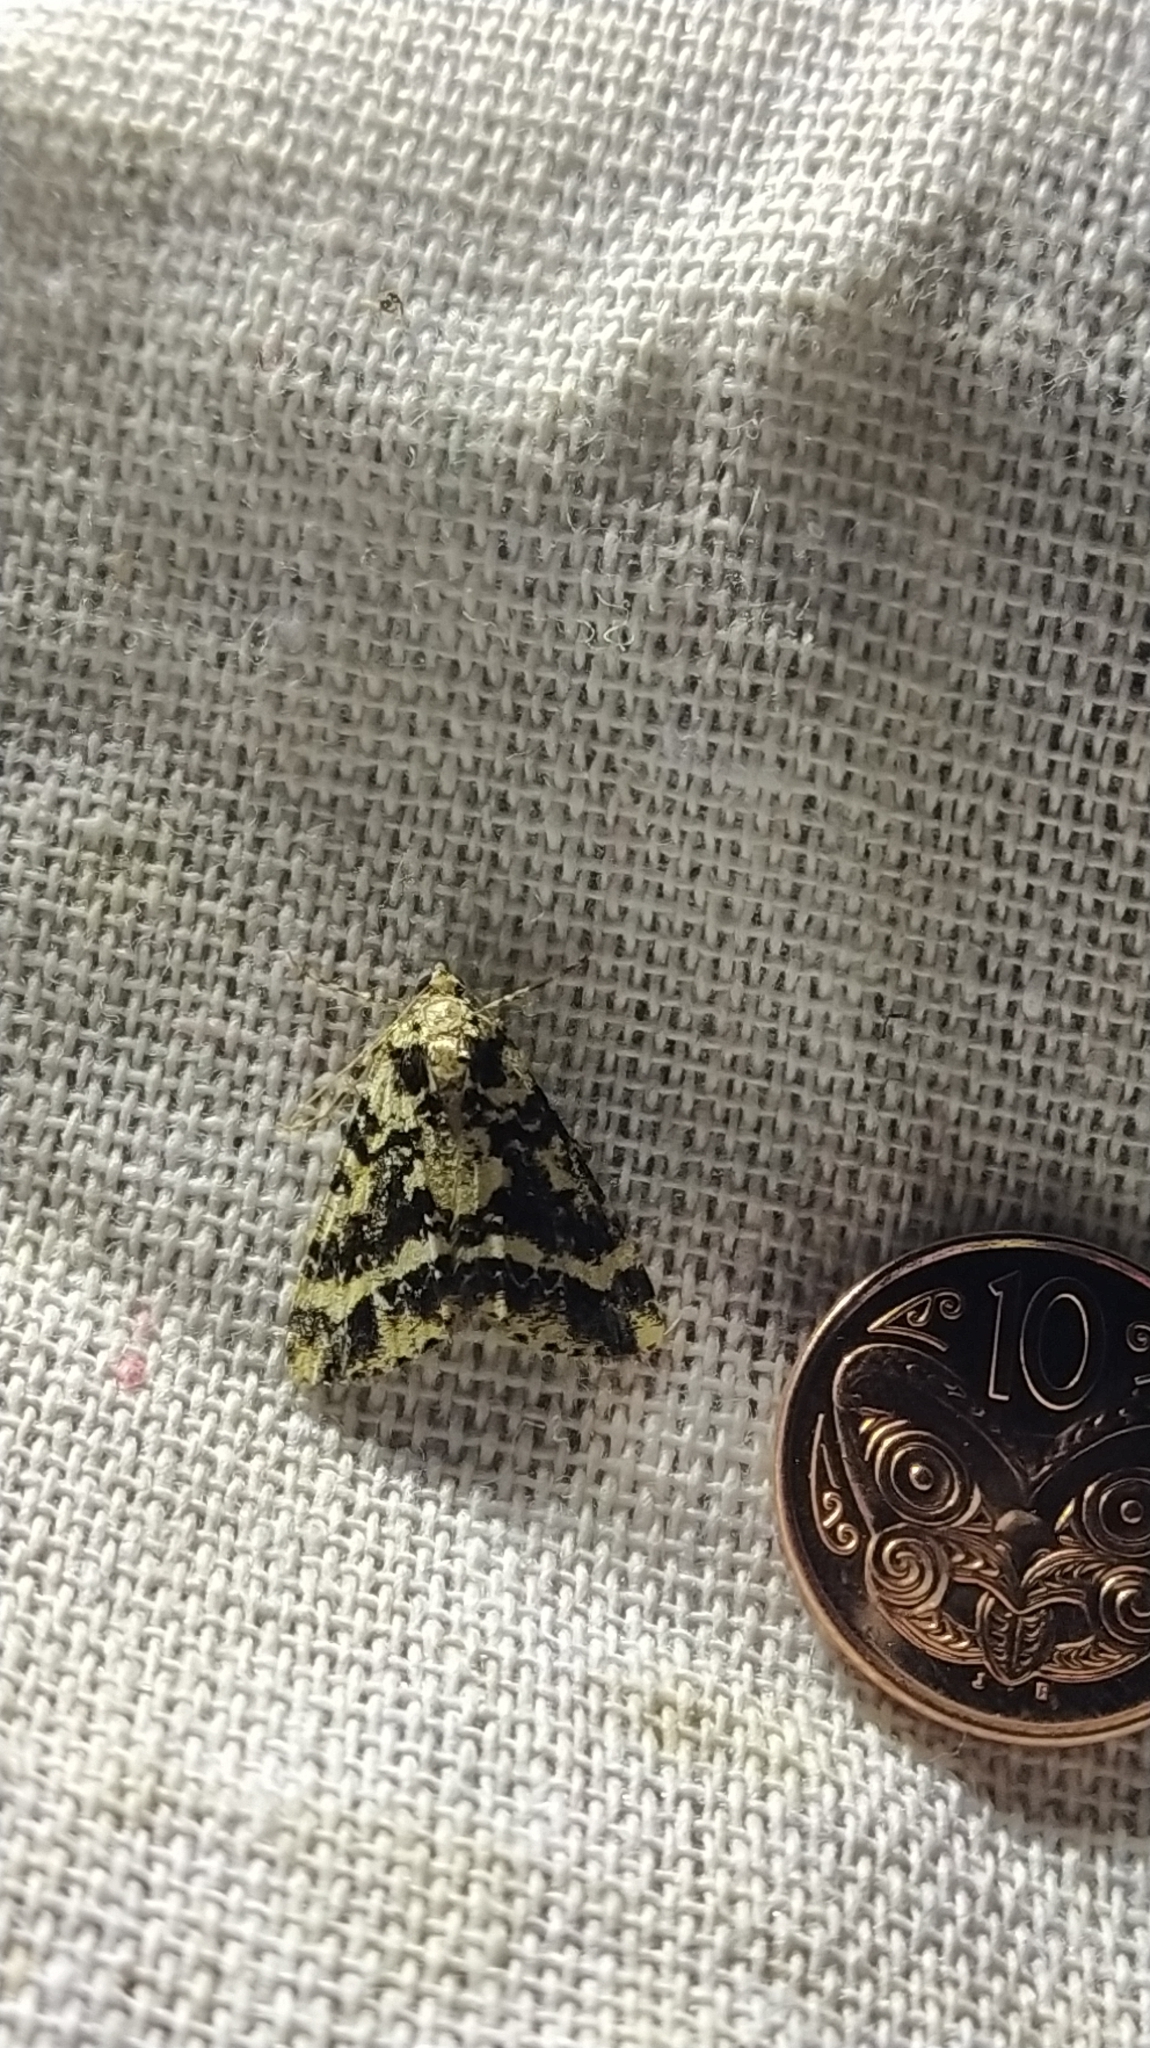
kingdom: Animalia
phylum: Arthropoda
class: Insecta
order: Lepidoptera
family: Geometridae
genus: Pseudocoremia
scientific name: Pseudocoremia leucelaea
